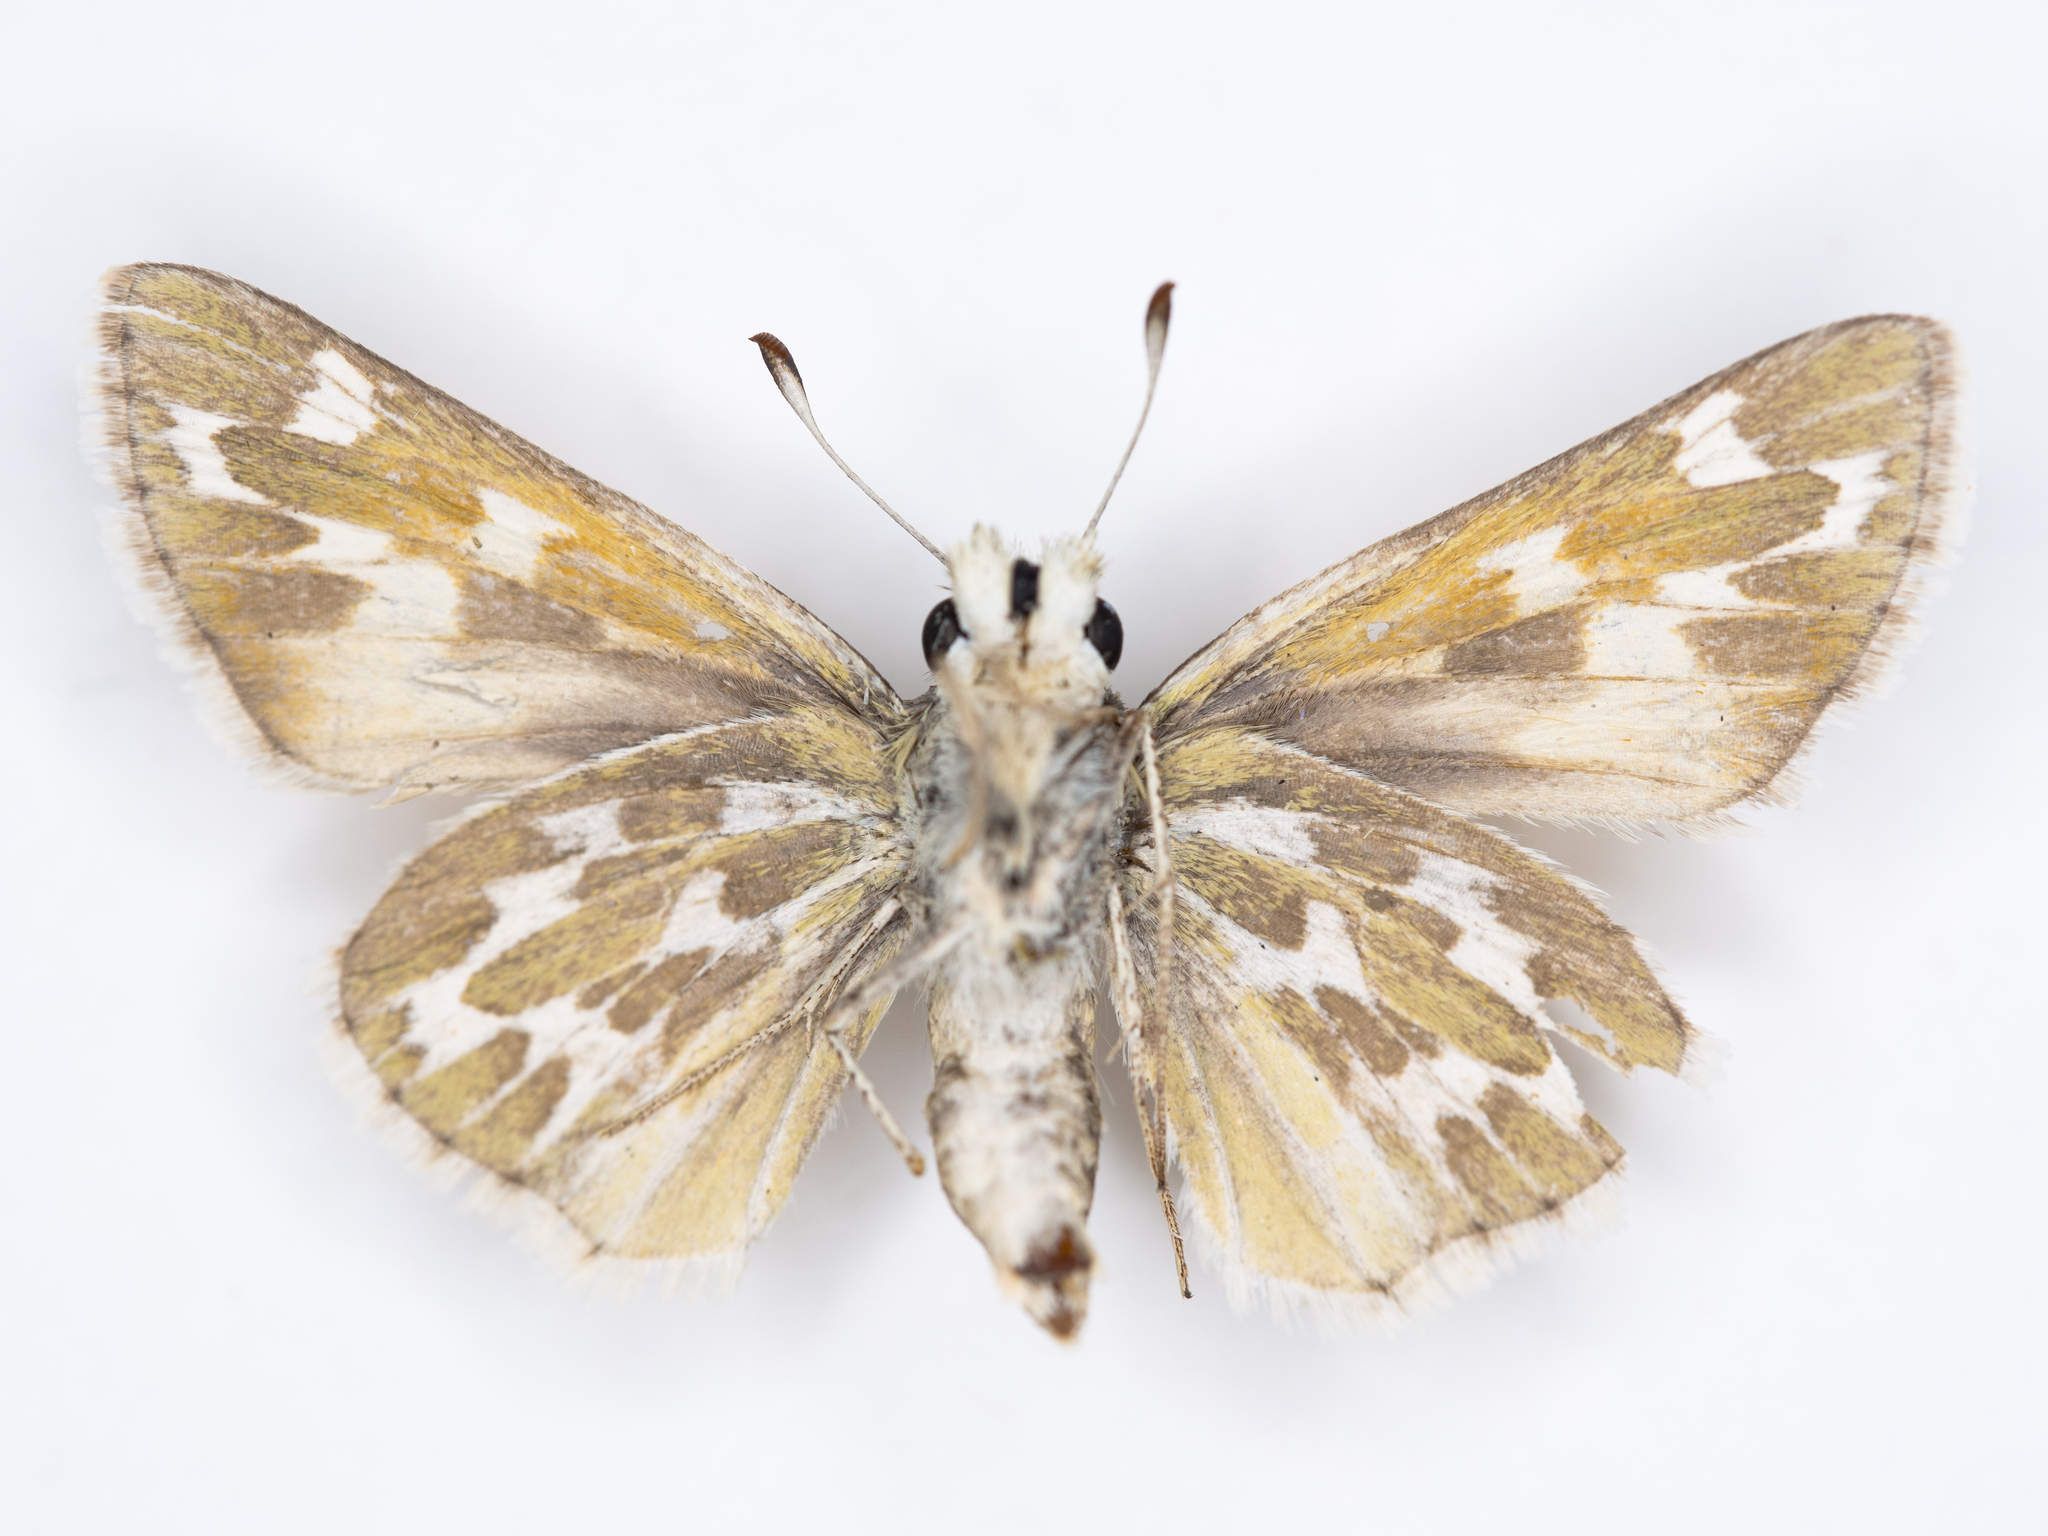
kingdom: Animalia
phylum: Arthropoda
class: Insecta
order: Lepidoptera
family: Hesperiidae
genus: Hesperia
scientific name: Hesperia uncas
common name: Uncas skipper
